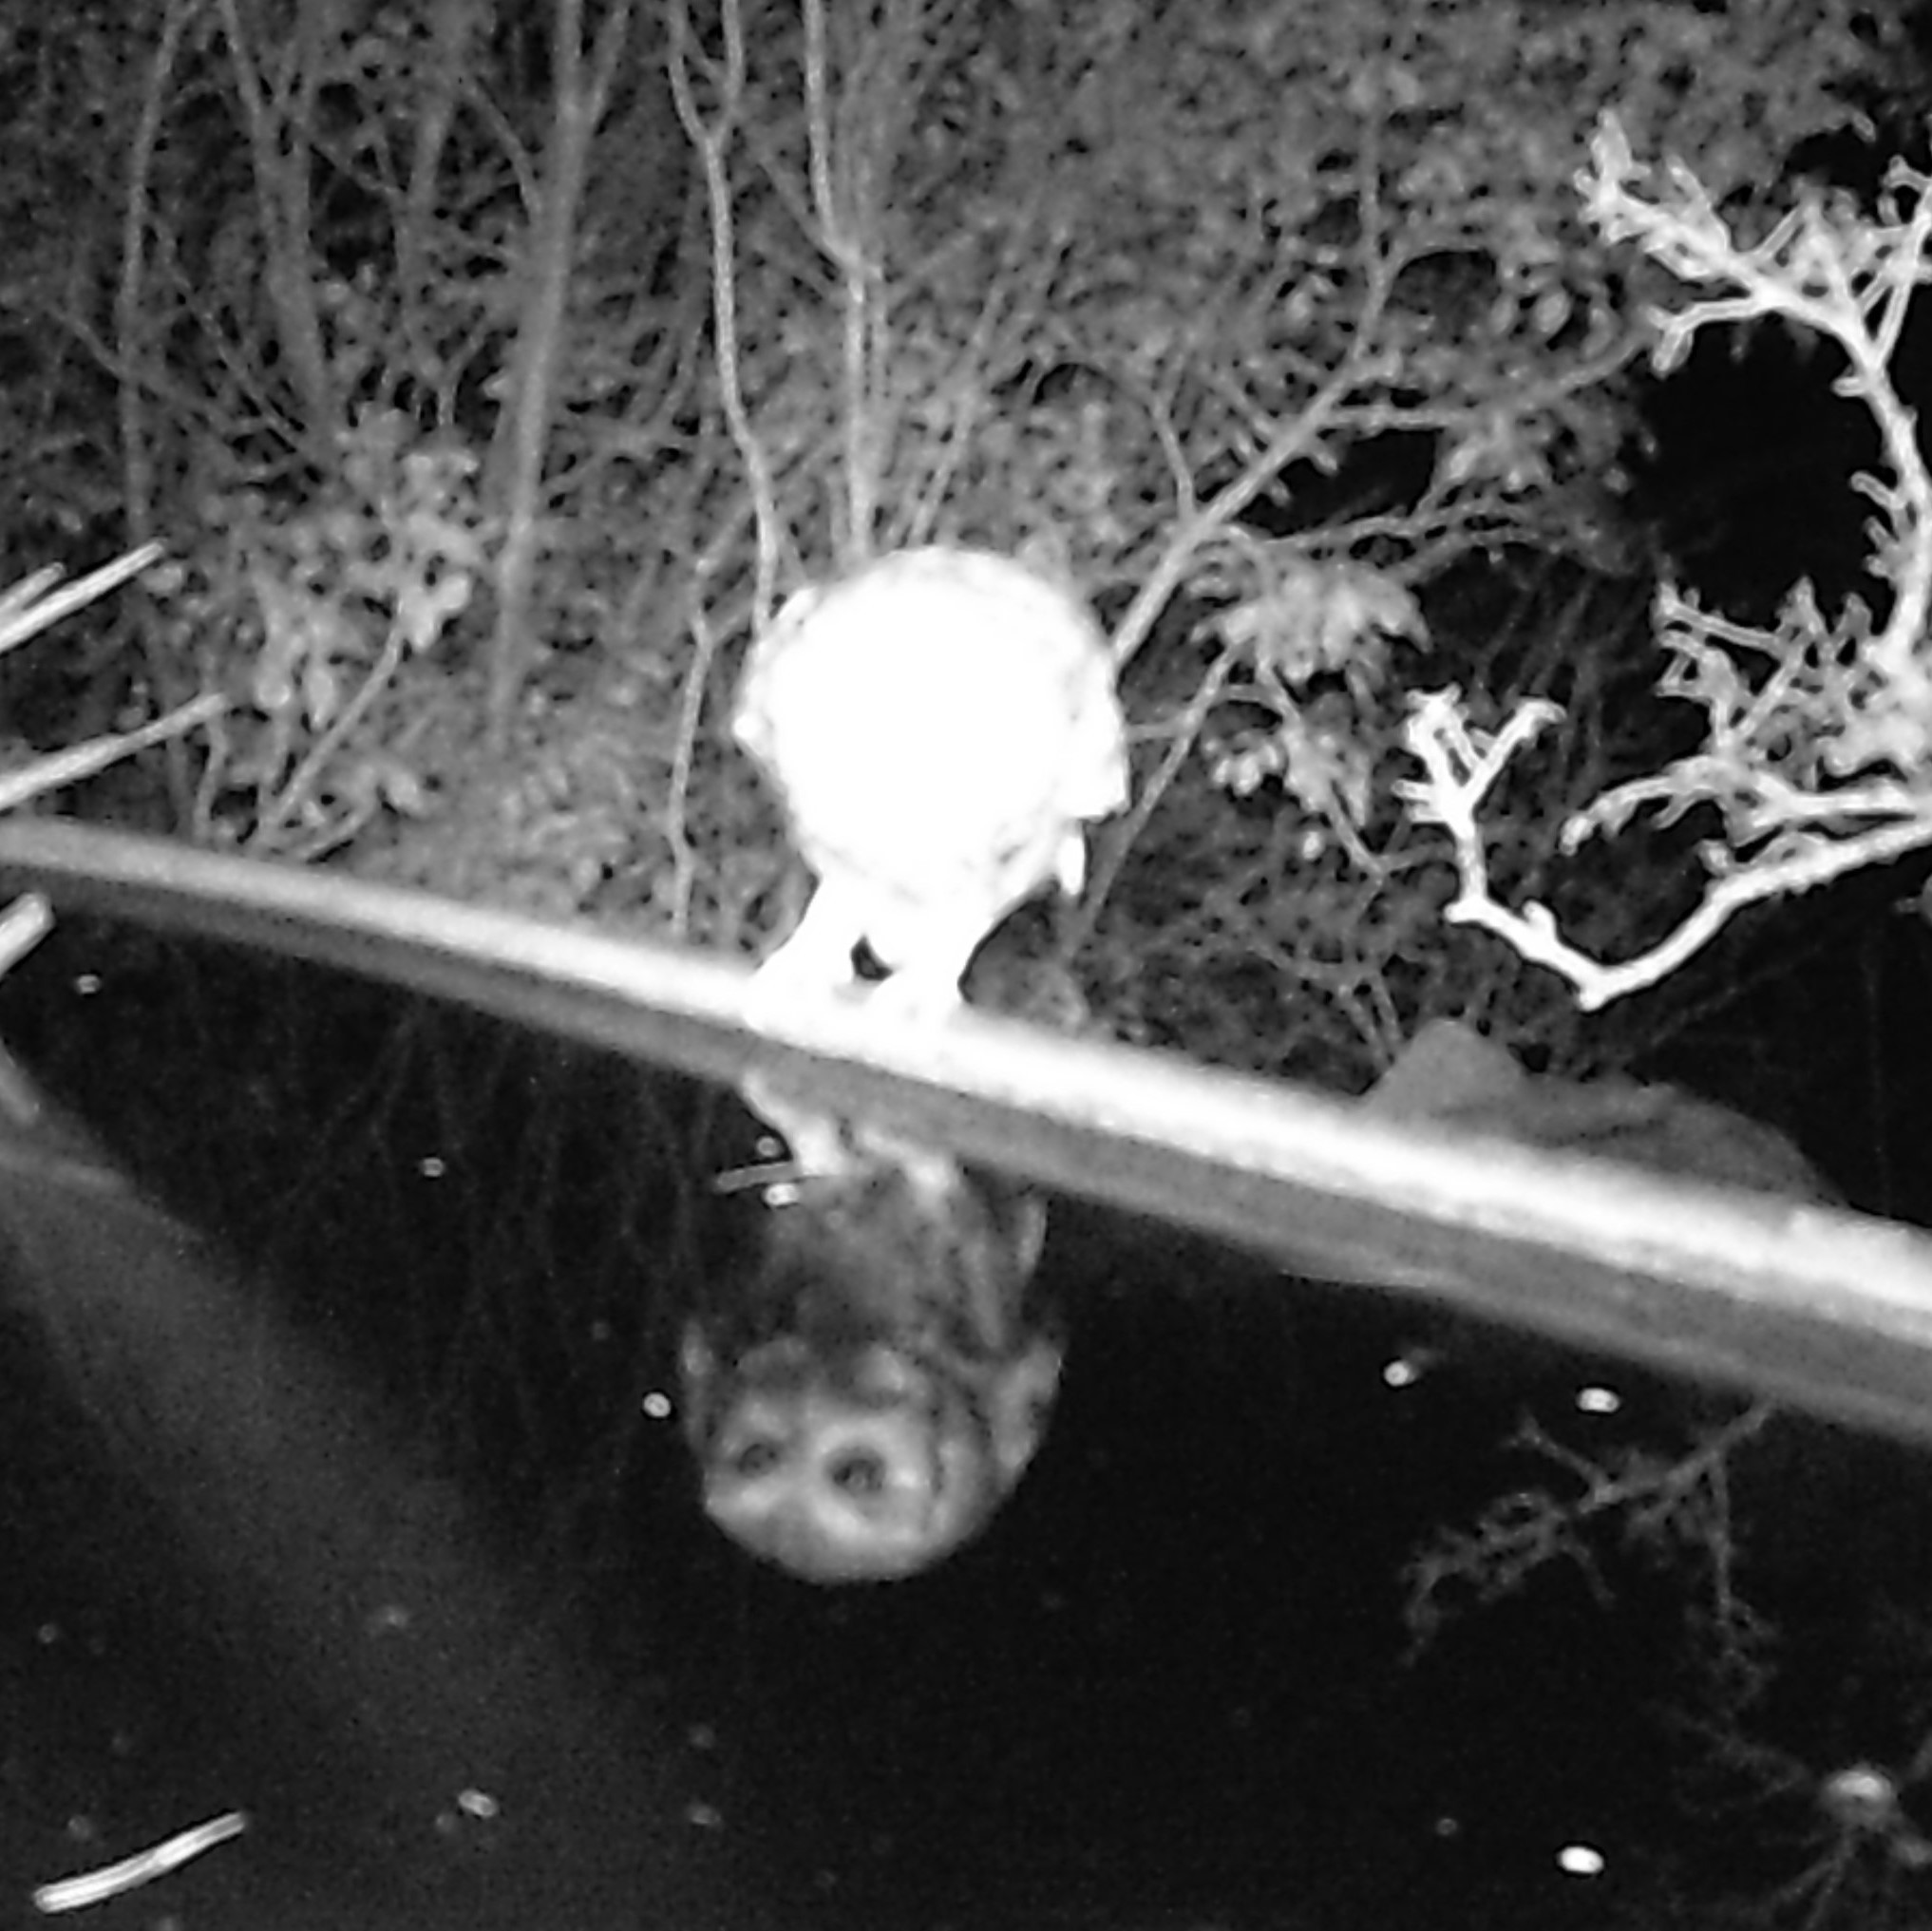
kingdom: Animalia
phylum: Chordata
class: Aves
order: Strigiformes
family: Strigidae
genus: Megascops
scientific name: Megascops asio
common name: Eastern screech-owl
